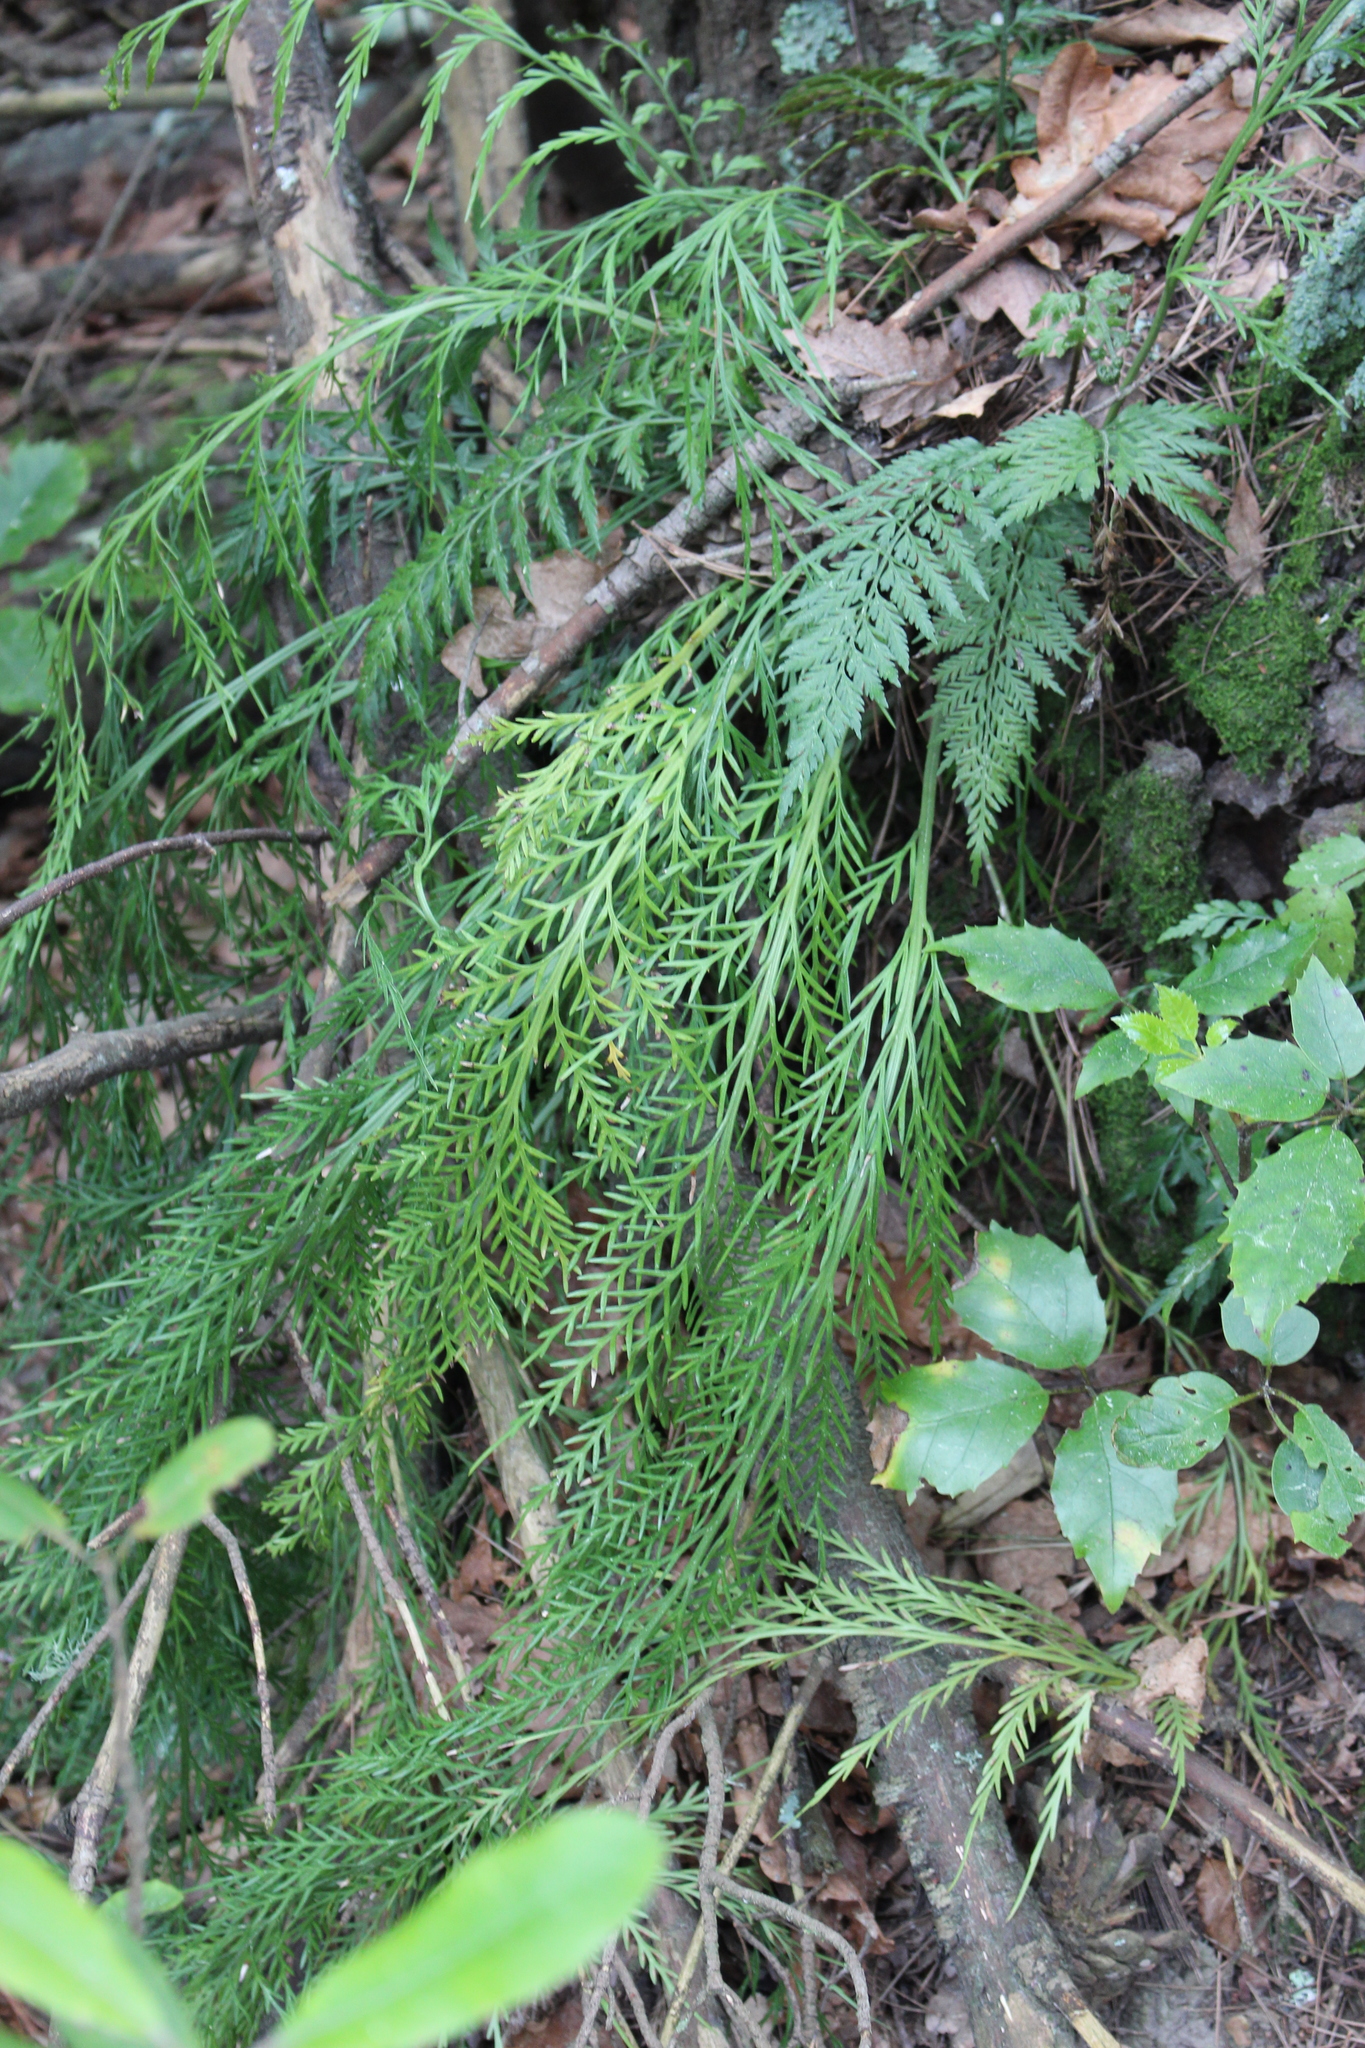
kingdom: Plantae
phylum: Tracheophyta
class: Polypodiopsida
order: Polypodiales
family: Aspleniaceae
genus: Asplenium
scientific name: Asplenium flaccidum
